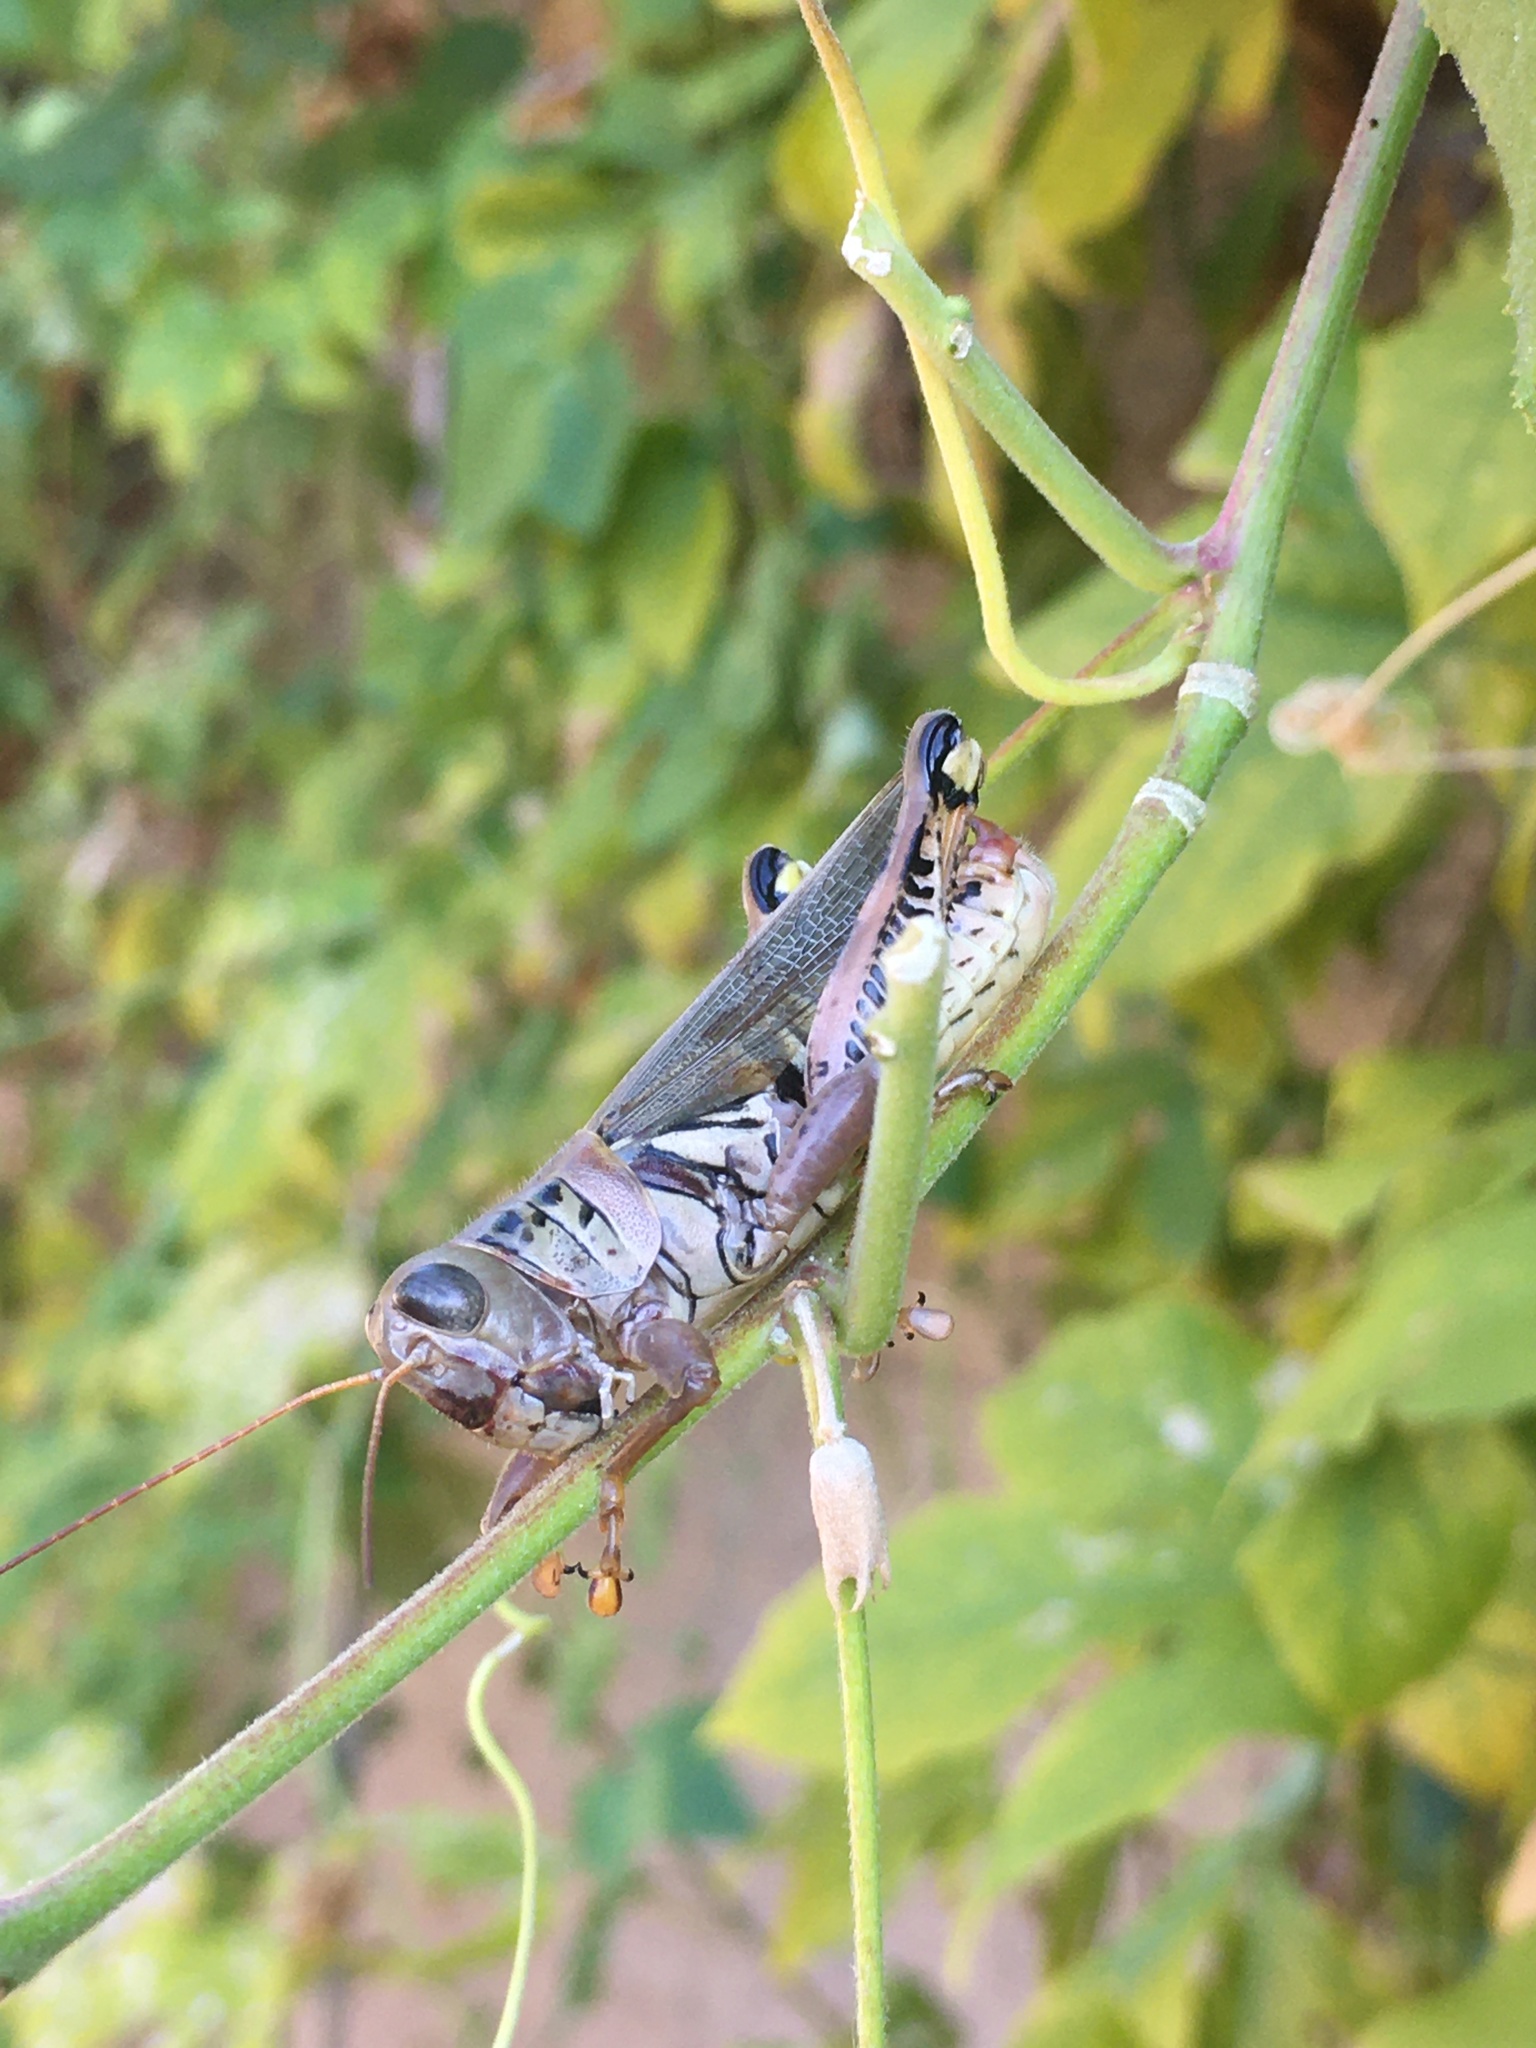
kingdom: Animalia
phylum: Arthropoda
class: Insecta
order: Orthoptera
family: Acrididae
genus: Melanoplus
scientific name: Melanoplus differentialis
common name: Differential grasshopper
